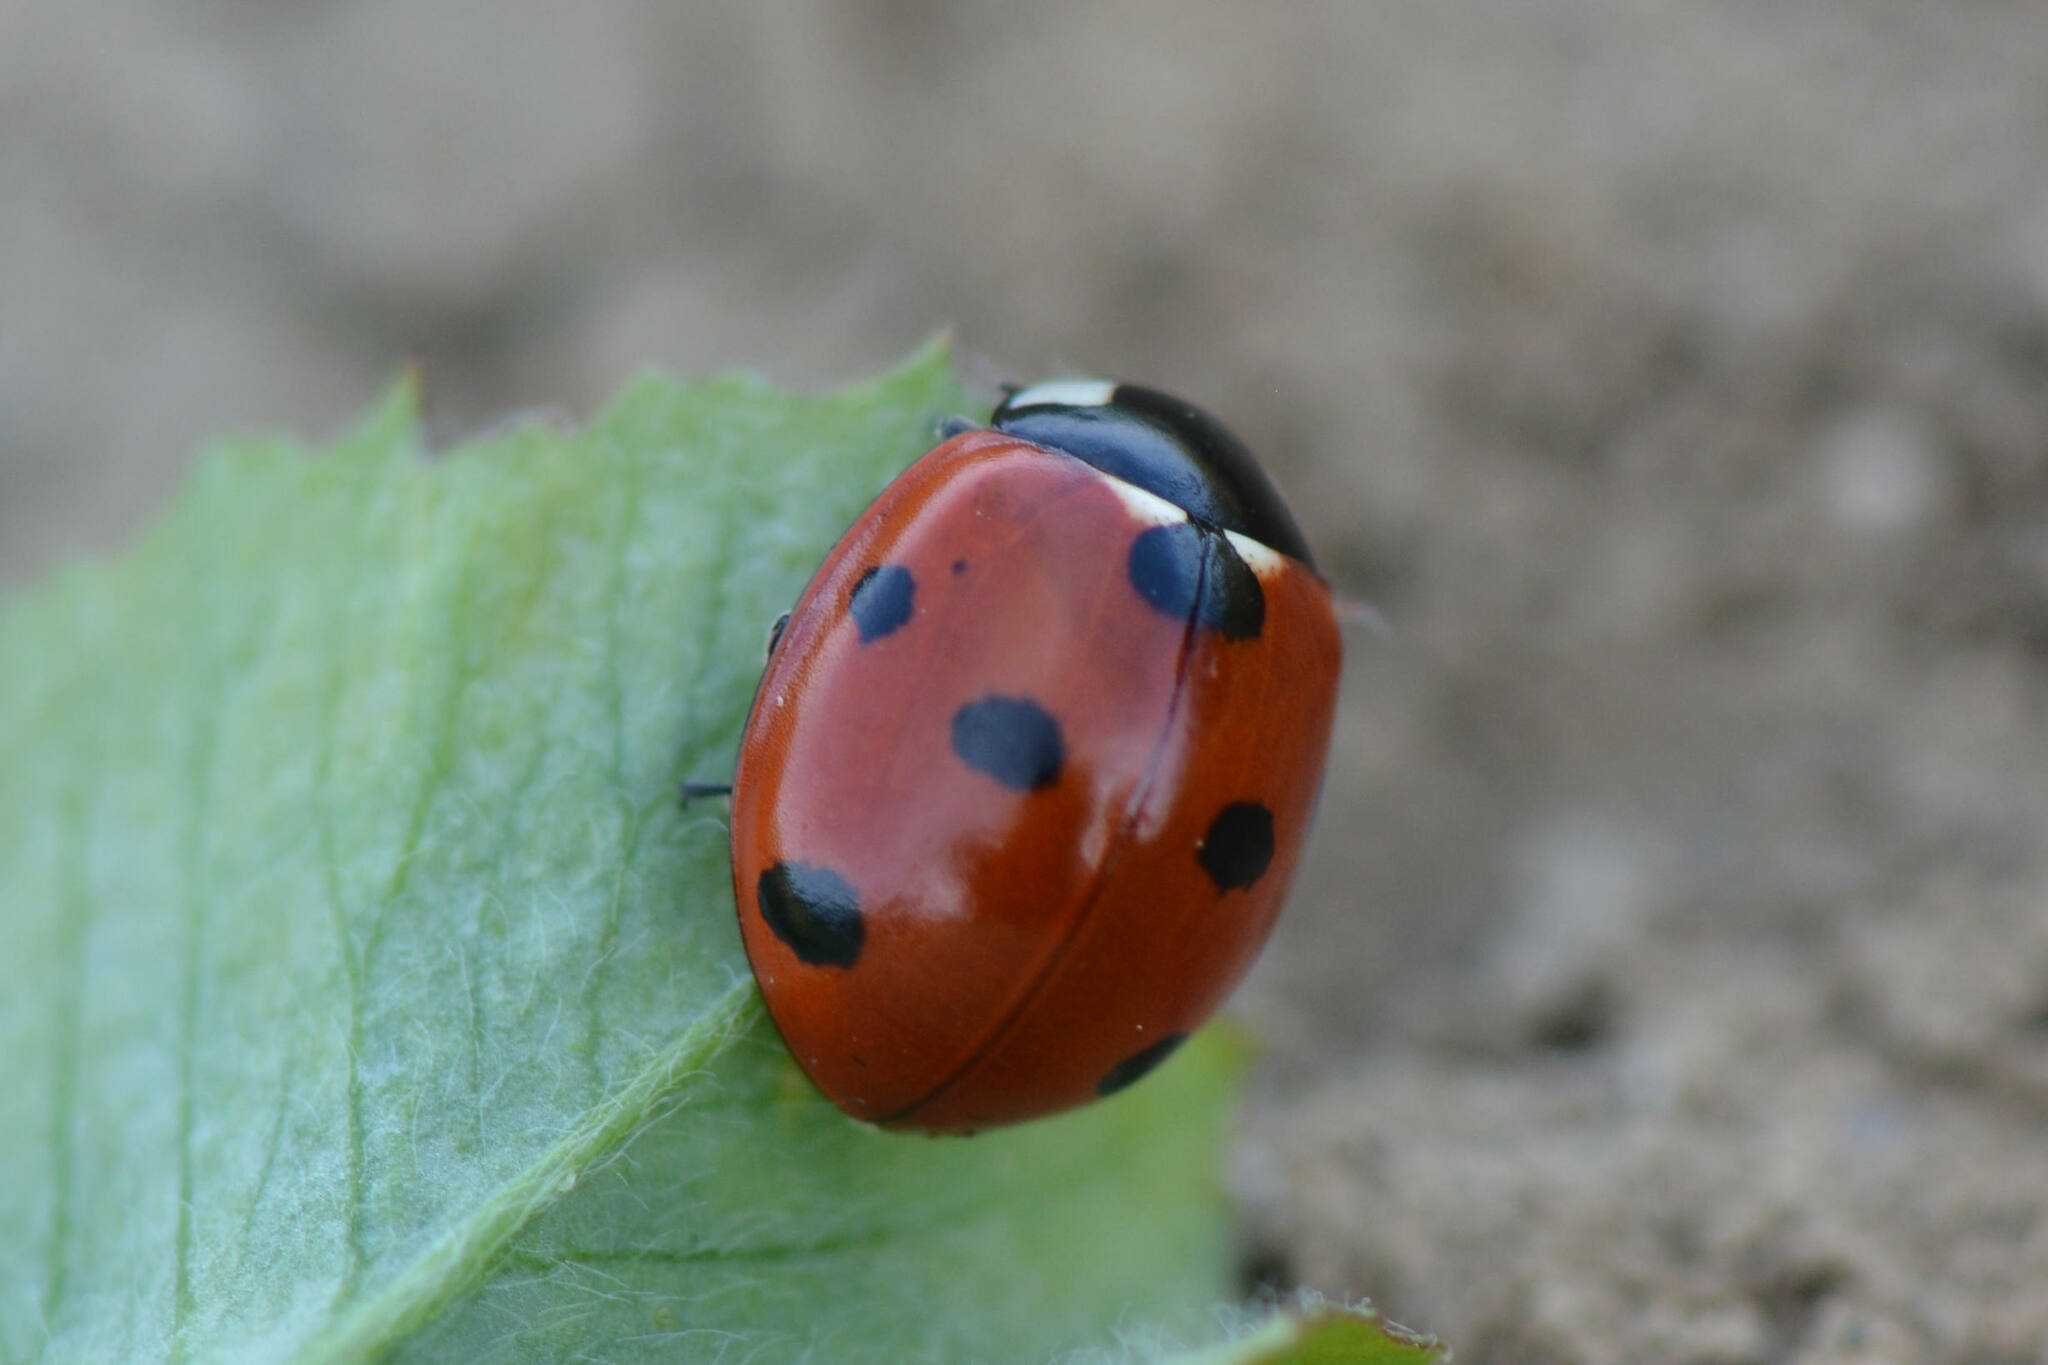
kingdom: Animalia
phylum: Arthropoda
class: Insecta
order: Coleoptera
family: Coccinellidae
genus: Coccinella
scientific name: Coccinella septempunctata
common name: Sevenspotted lady beetle
